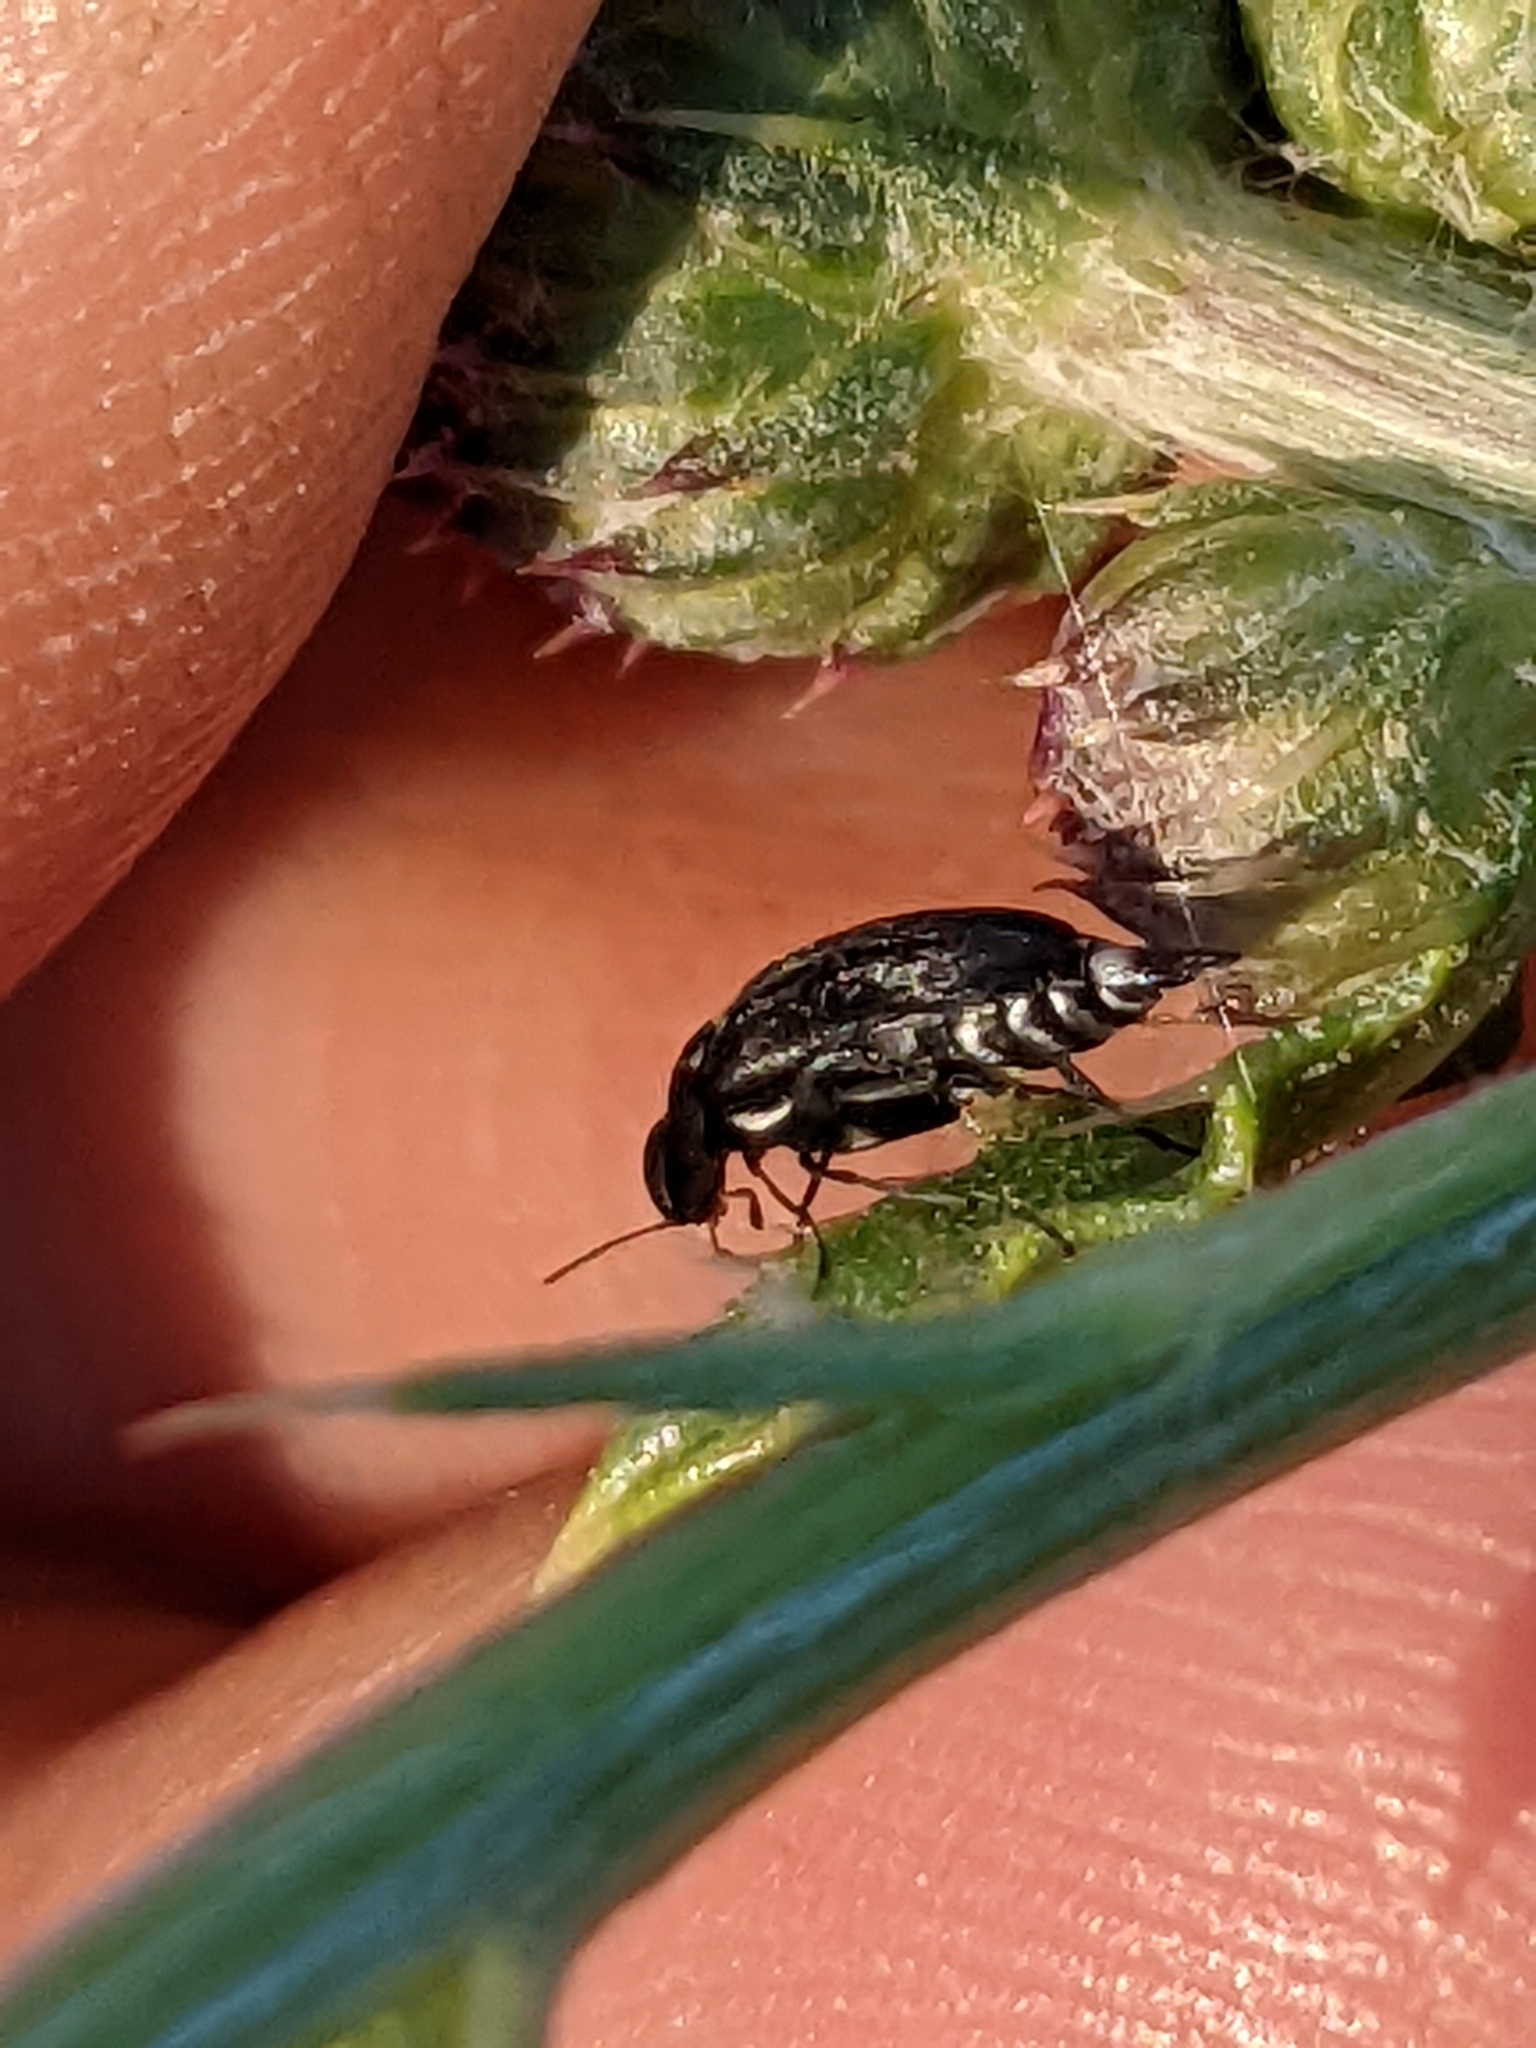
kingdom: Animalia
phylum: Arthropoda
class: Insecta
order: Coleoptera
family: Mordellidae
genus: Mordella
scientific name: Mordella marginata
